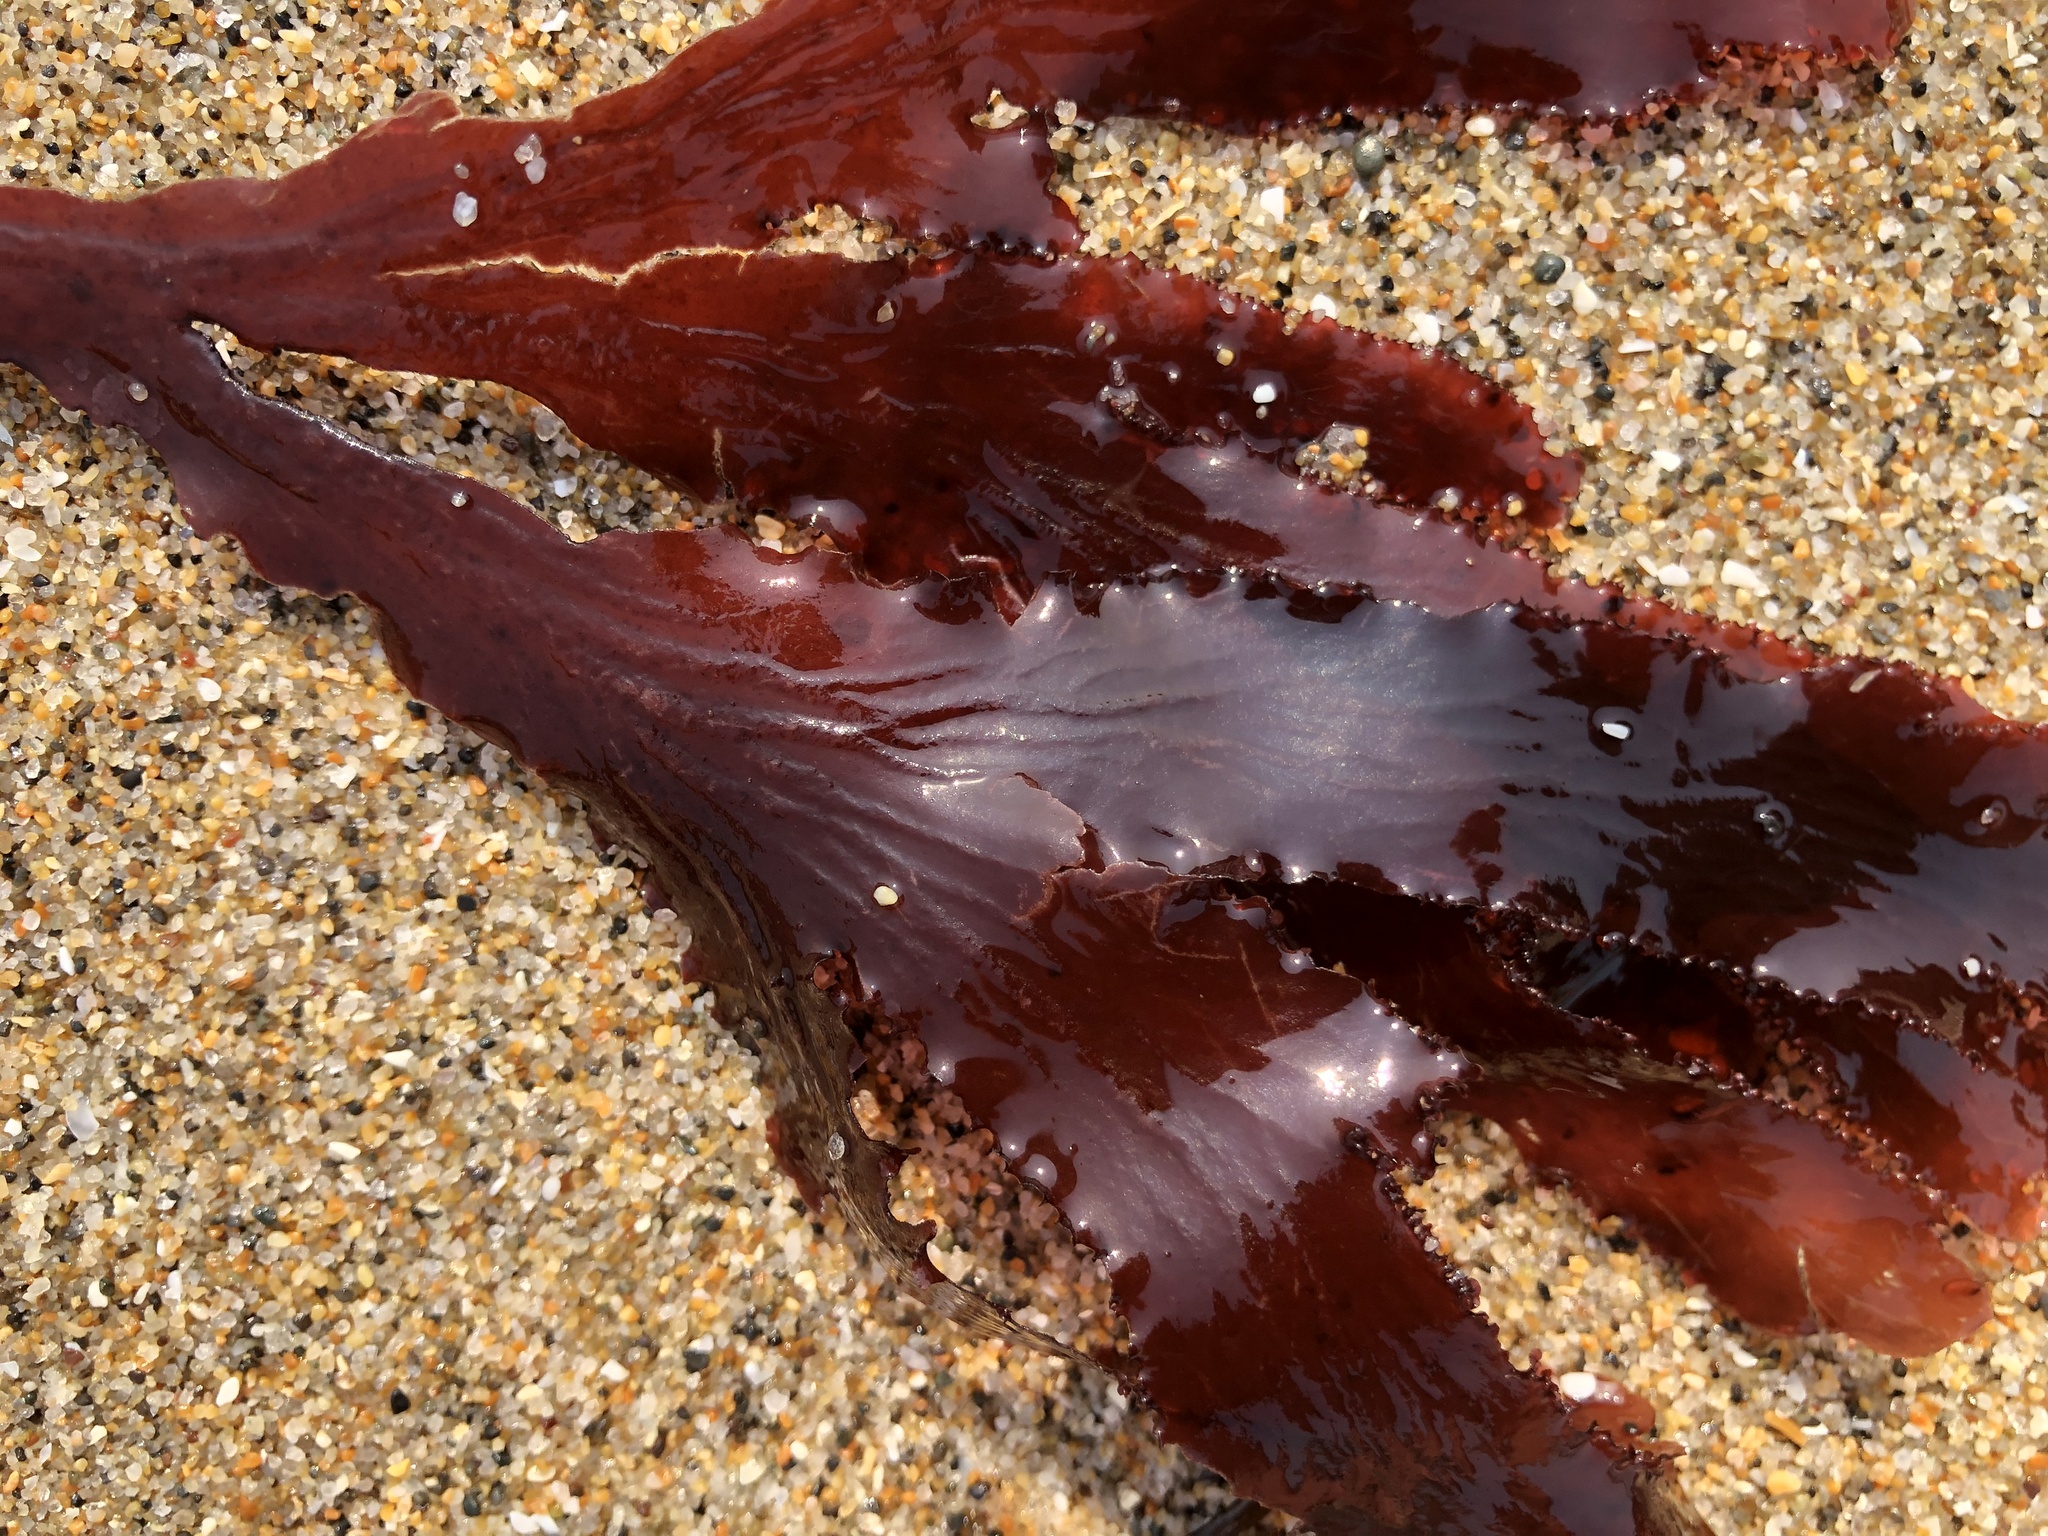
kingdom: Plantae
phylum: Rhodophyta
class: Florideophyceae
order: Ceramiales
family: Delesseriaceae
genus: Cryptopleura
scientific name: Cryptopleura ruprechtiana
